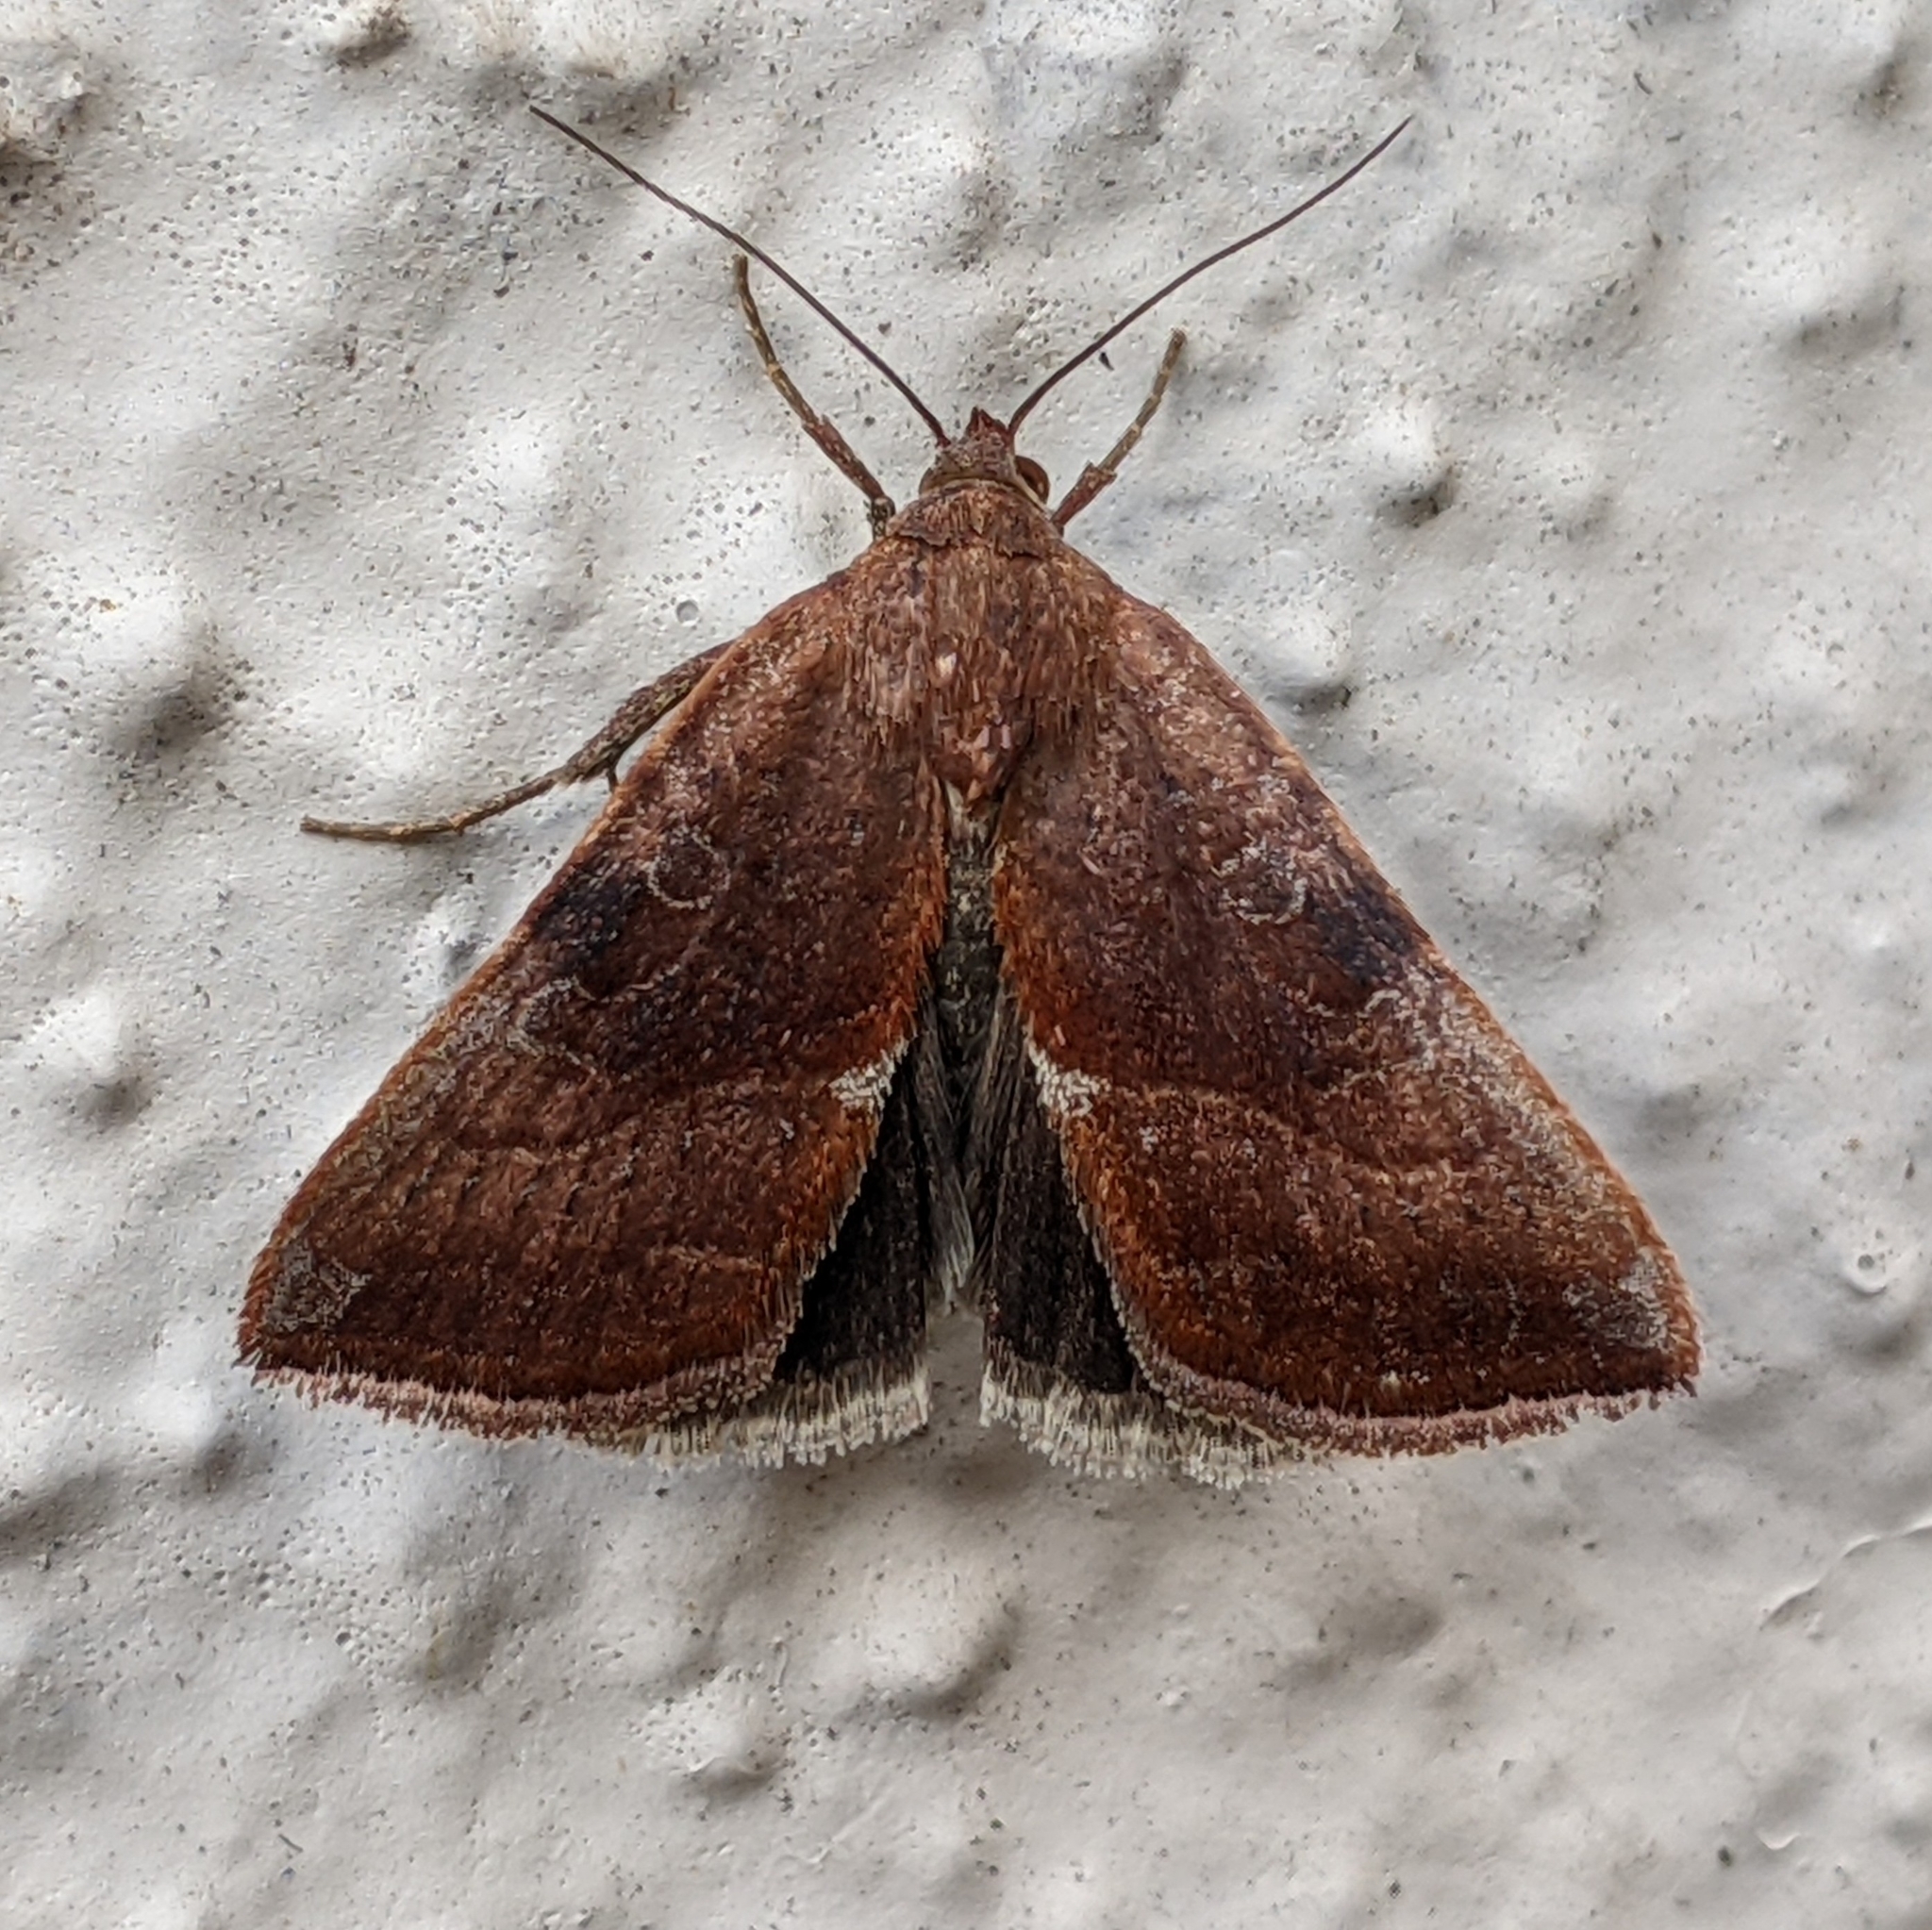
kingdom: Animalia
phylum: Arthropoda
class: Insecta
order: Lepidoptera
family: Noctuidae
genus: Galgula
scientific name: Galgula partita
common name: Wedgeling
